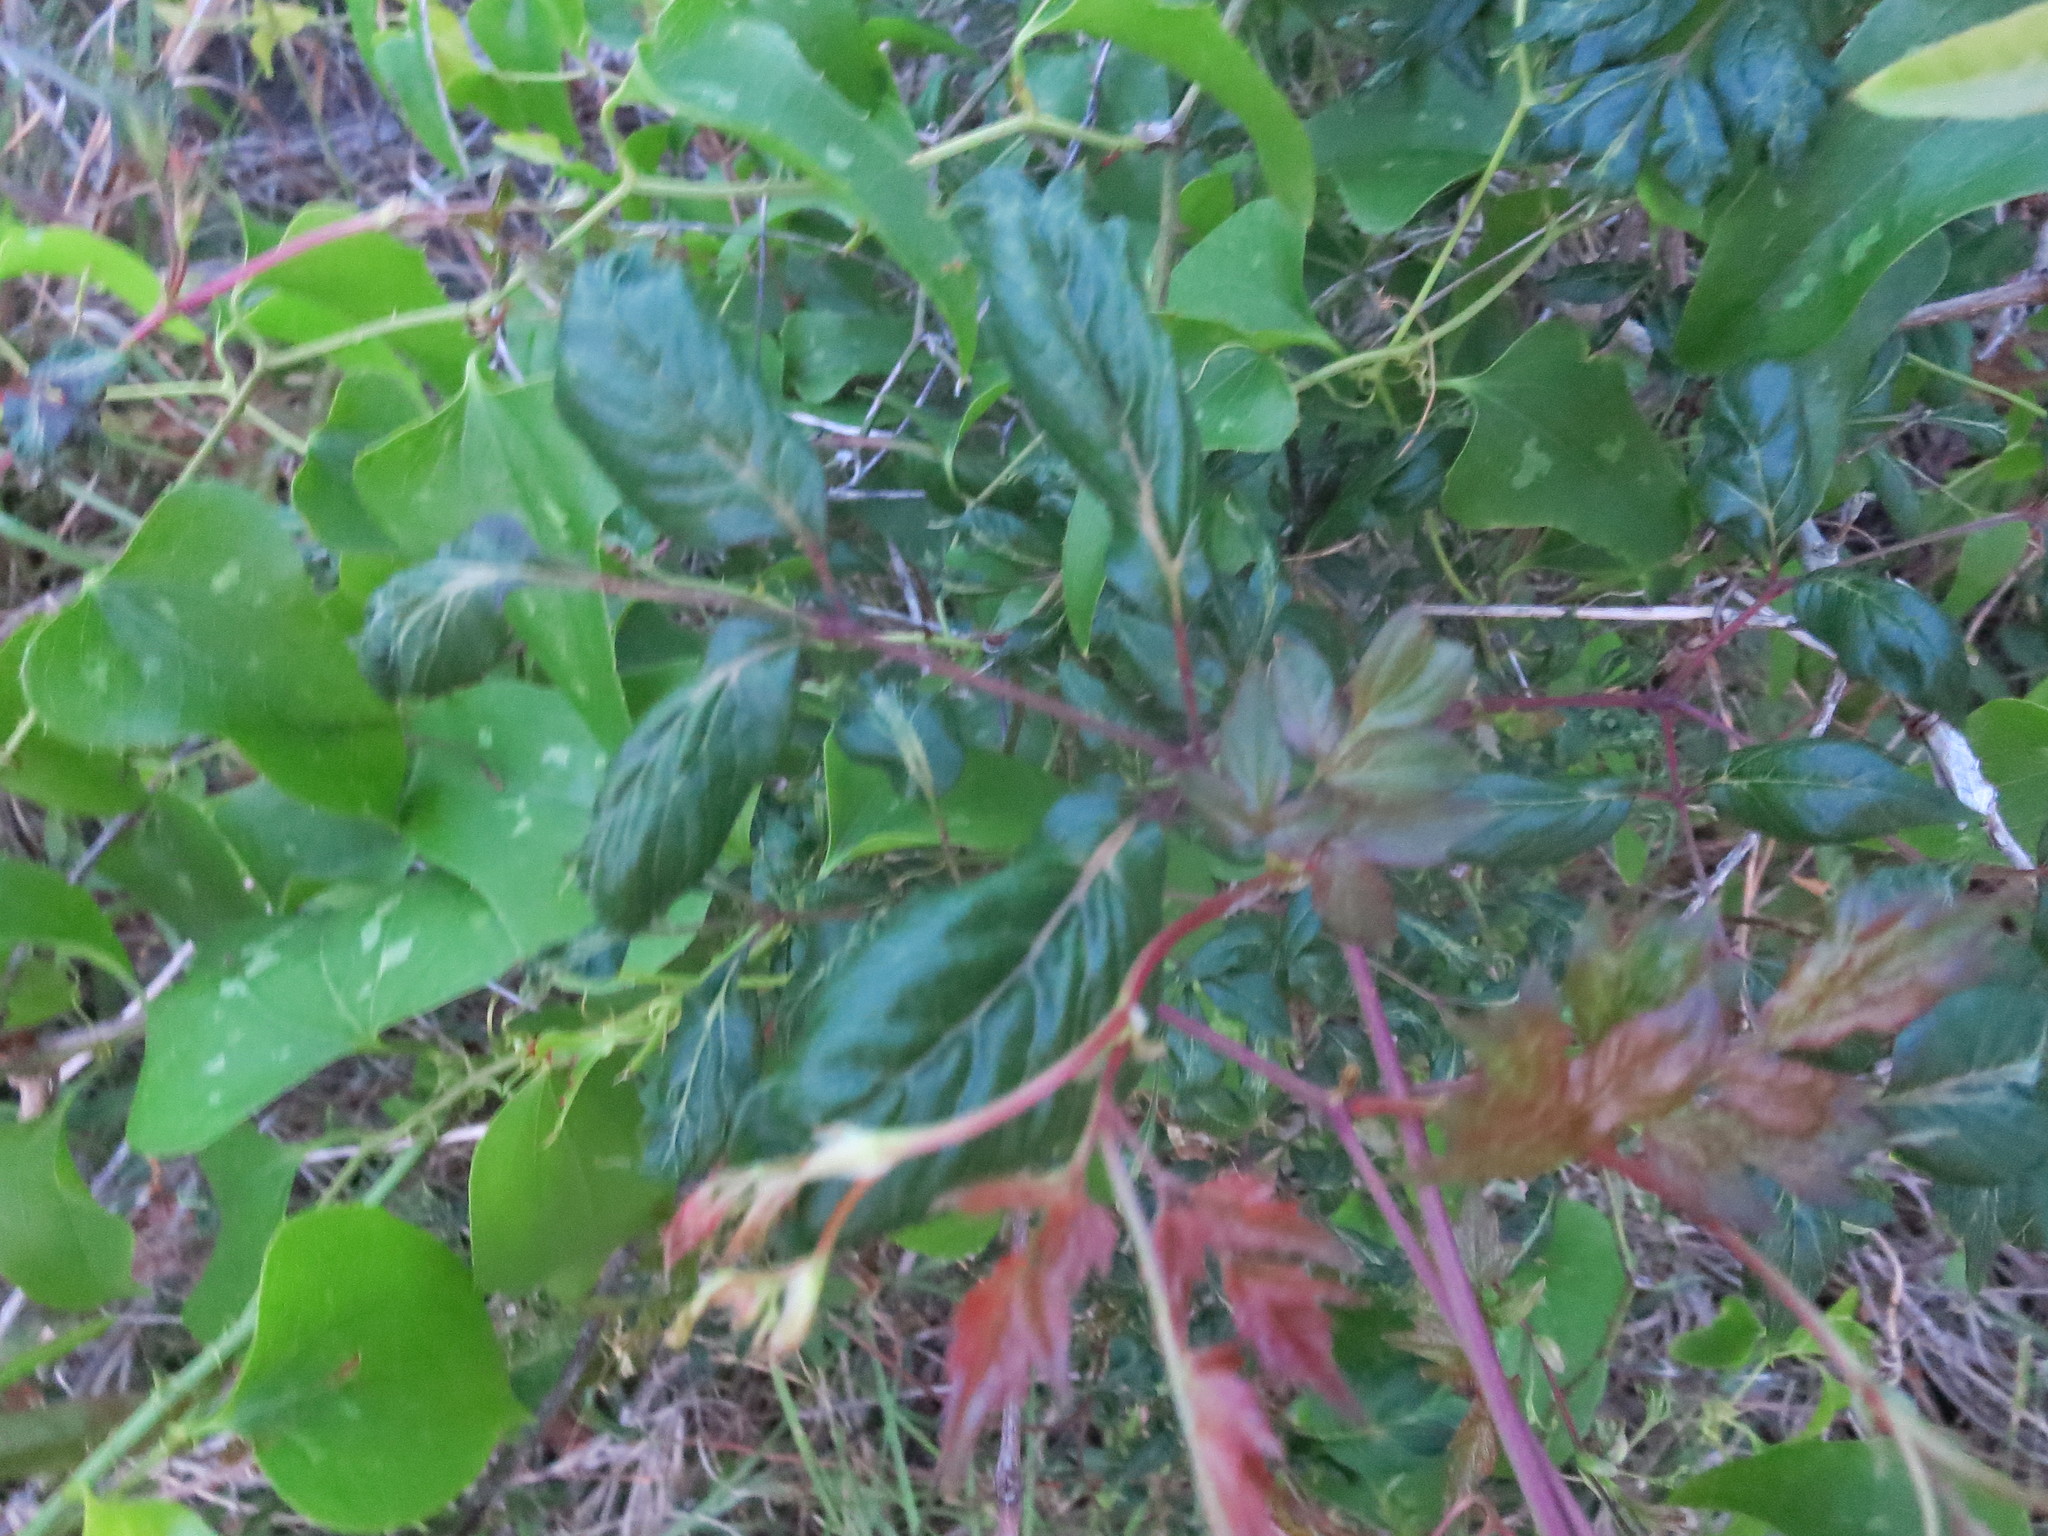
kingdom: Plantae
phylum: Tracheophyta
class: Magnoliopsida
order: Vitales
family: Vitaceae
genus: Nekemias
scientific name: Nekemias arborea
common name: Peppervine
